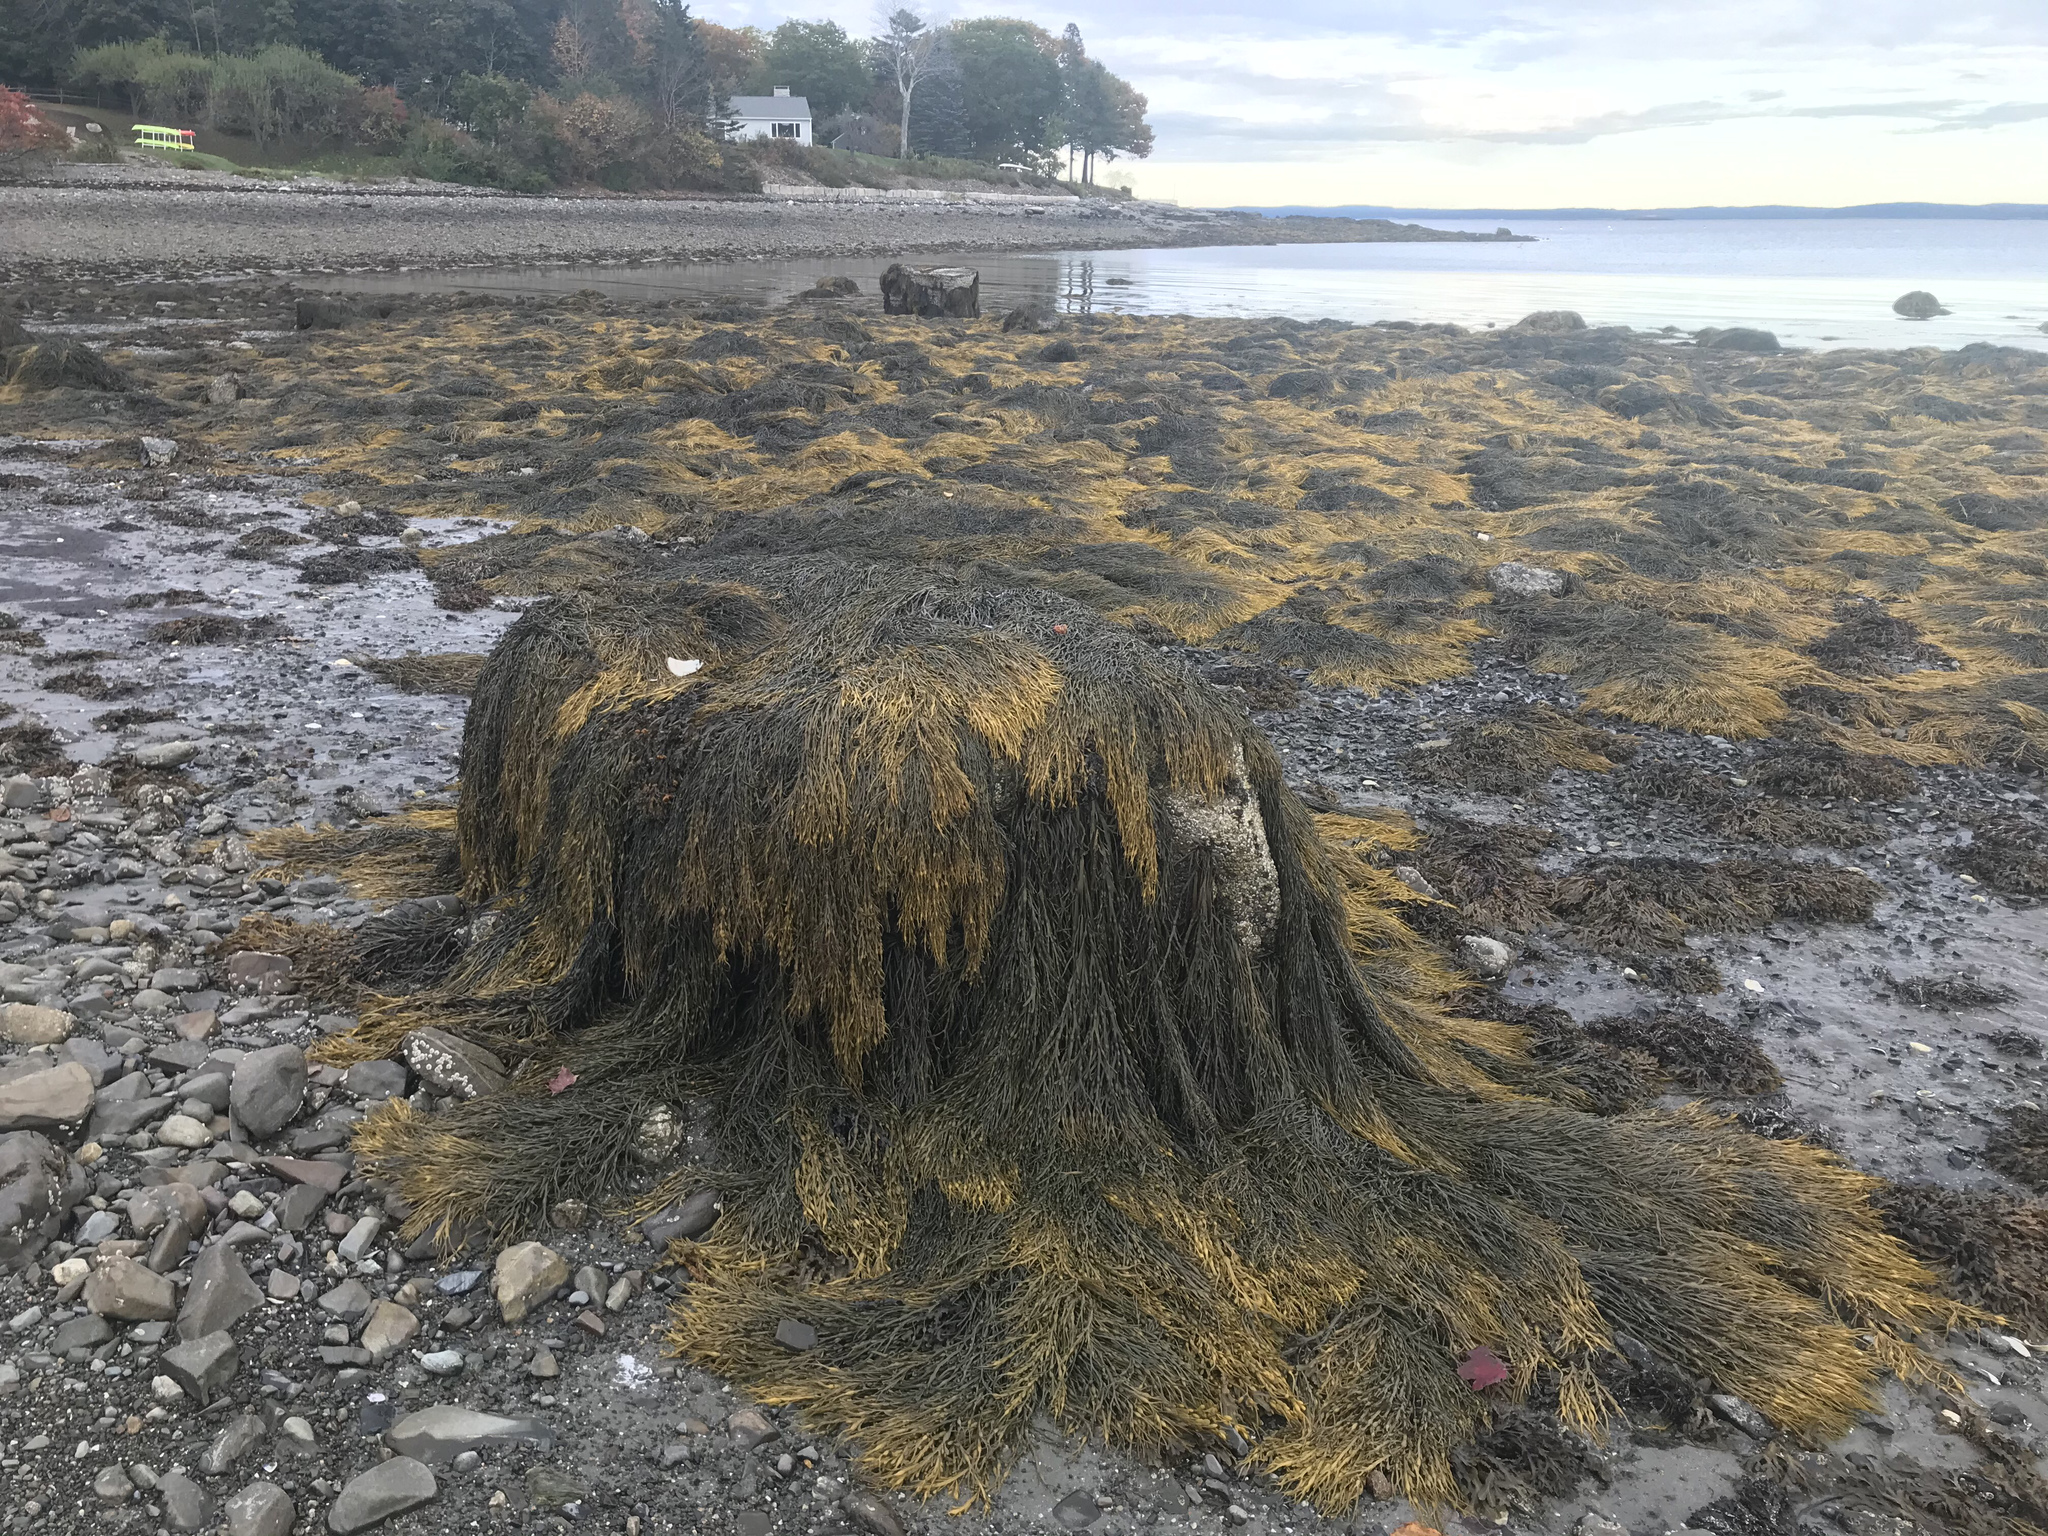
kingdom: Chromista
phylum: Ochrophyta
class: Phaeophyceae
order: Fucales
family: Fucaceae
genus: Ascophyllum
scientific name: Ascophyllum nodosum
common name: Knotted wrack
